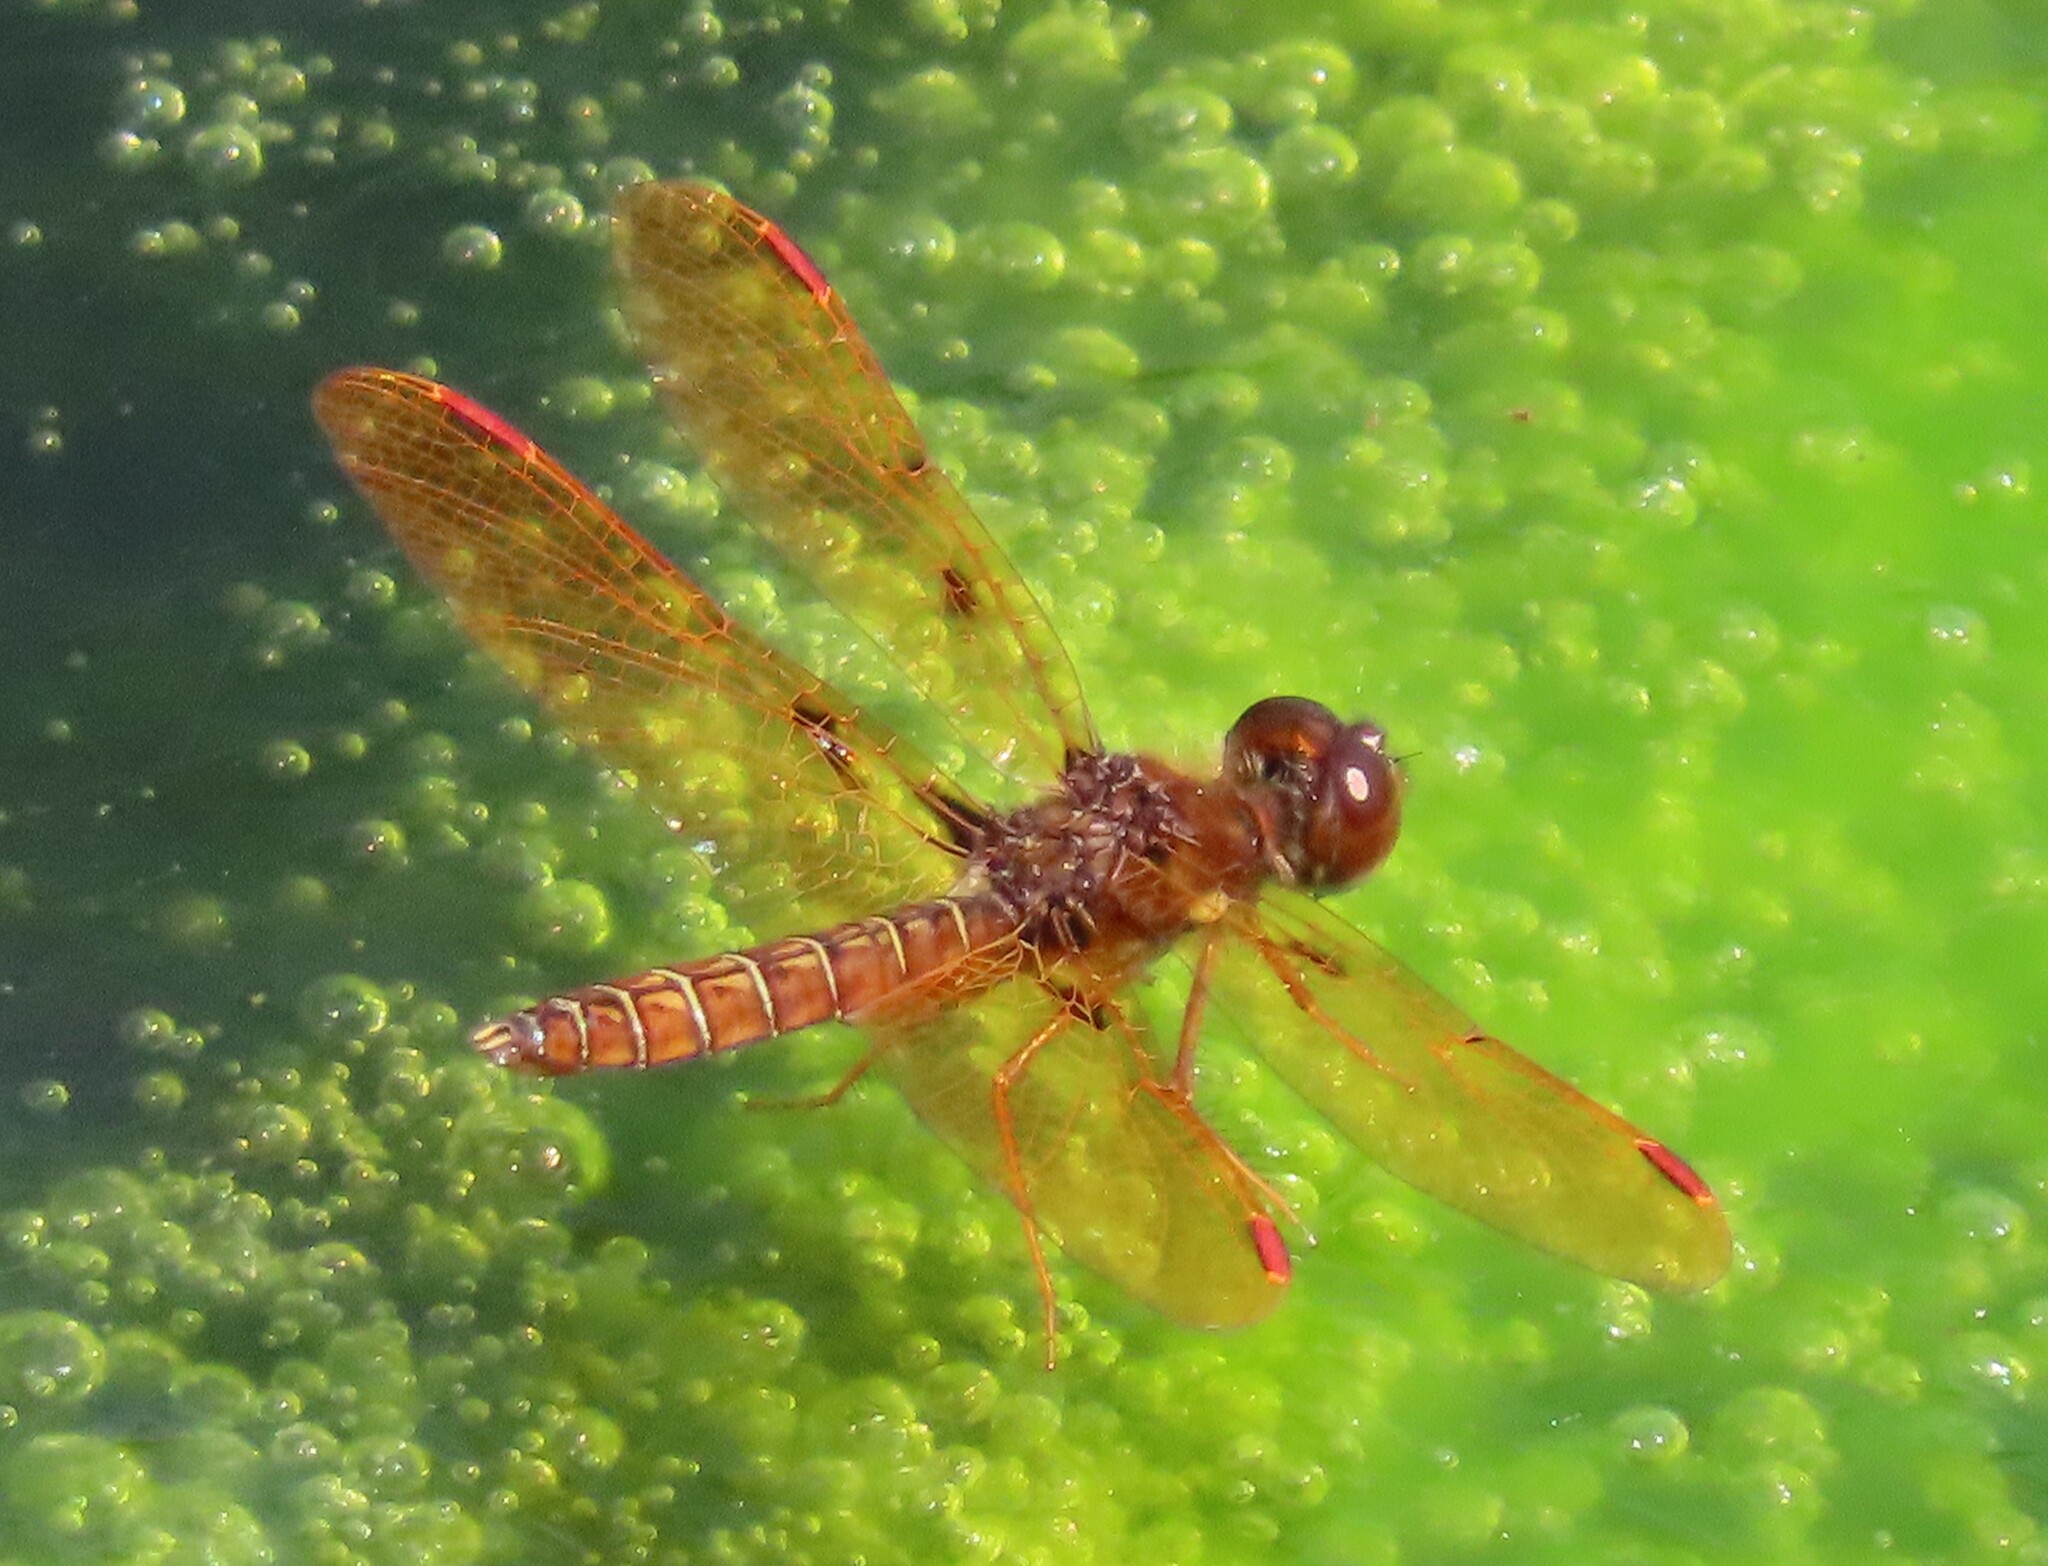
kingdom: Animalia
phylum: Arthropoda
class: Insecta
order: Odonata
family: Libellulidae
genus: Perithemis
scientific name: Perithemis tenera
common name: Eastern amberwing
